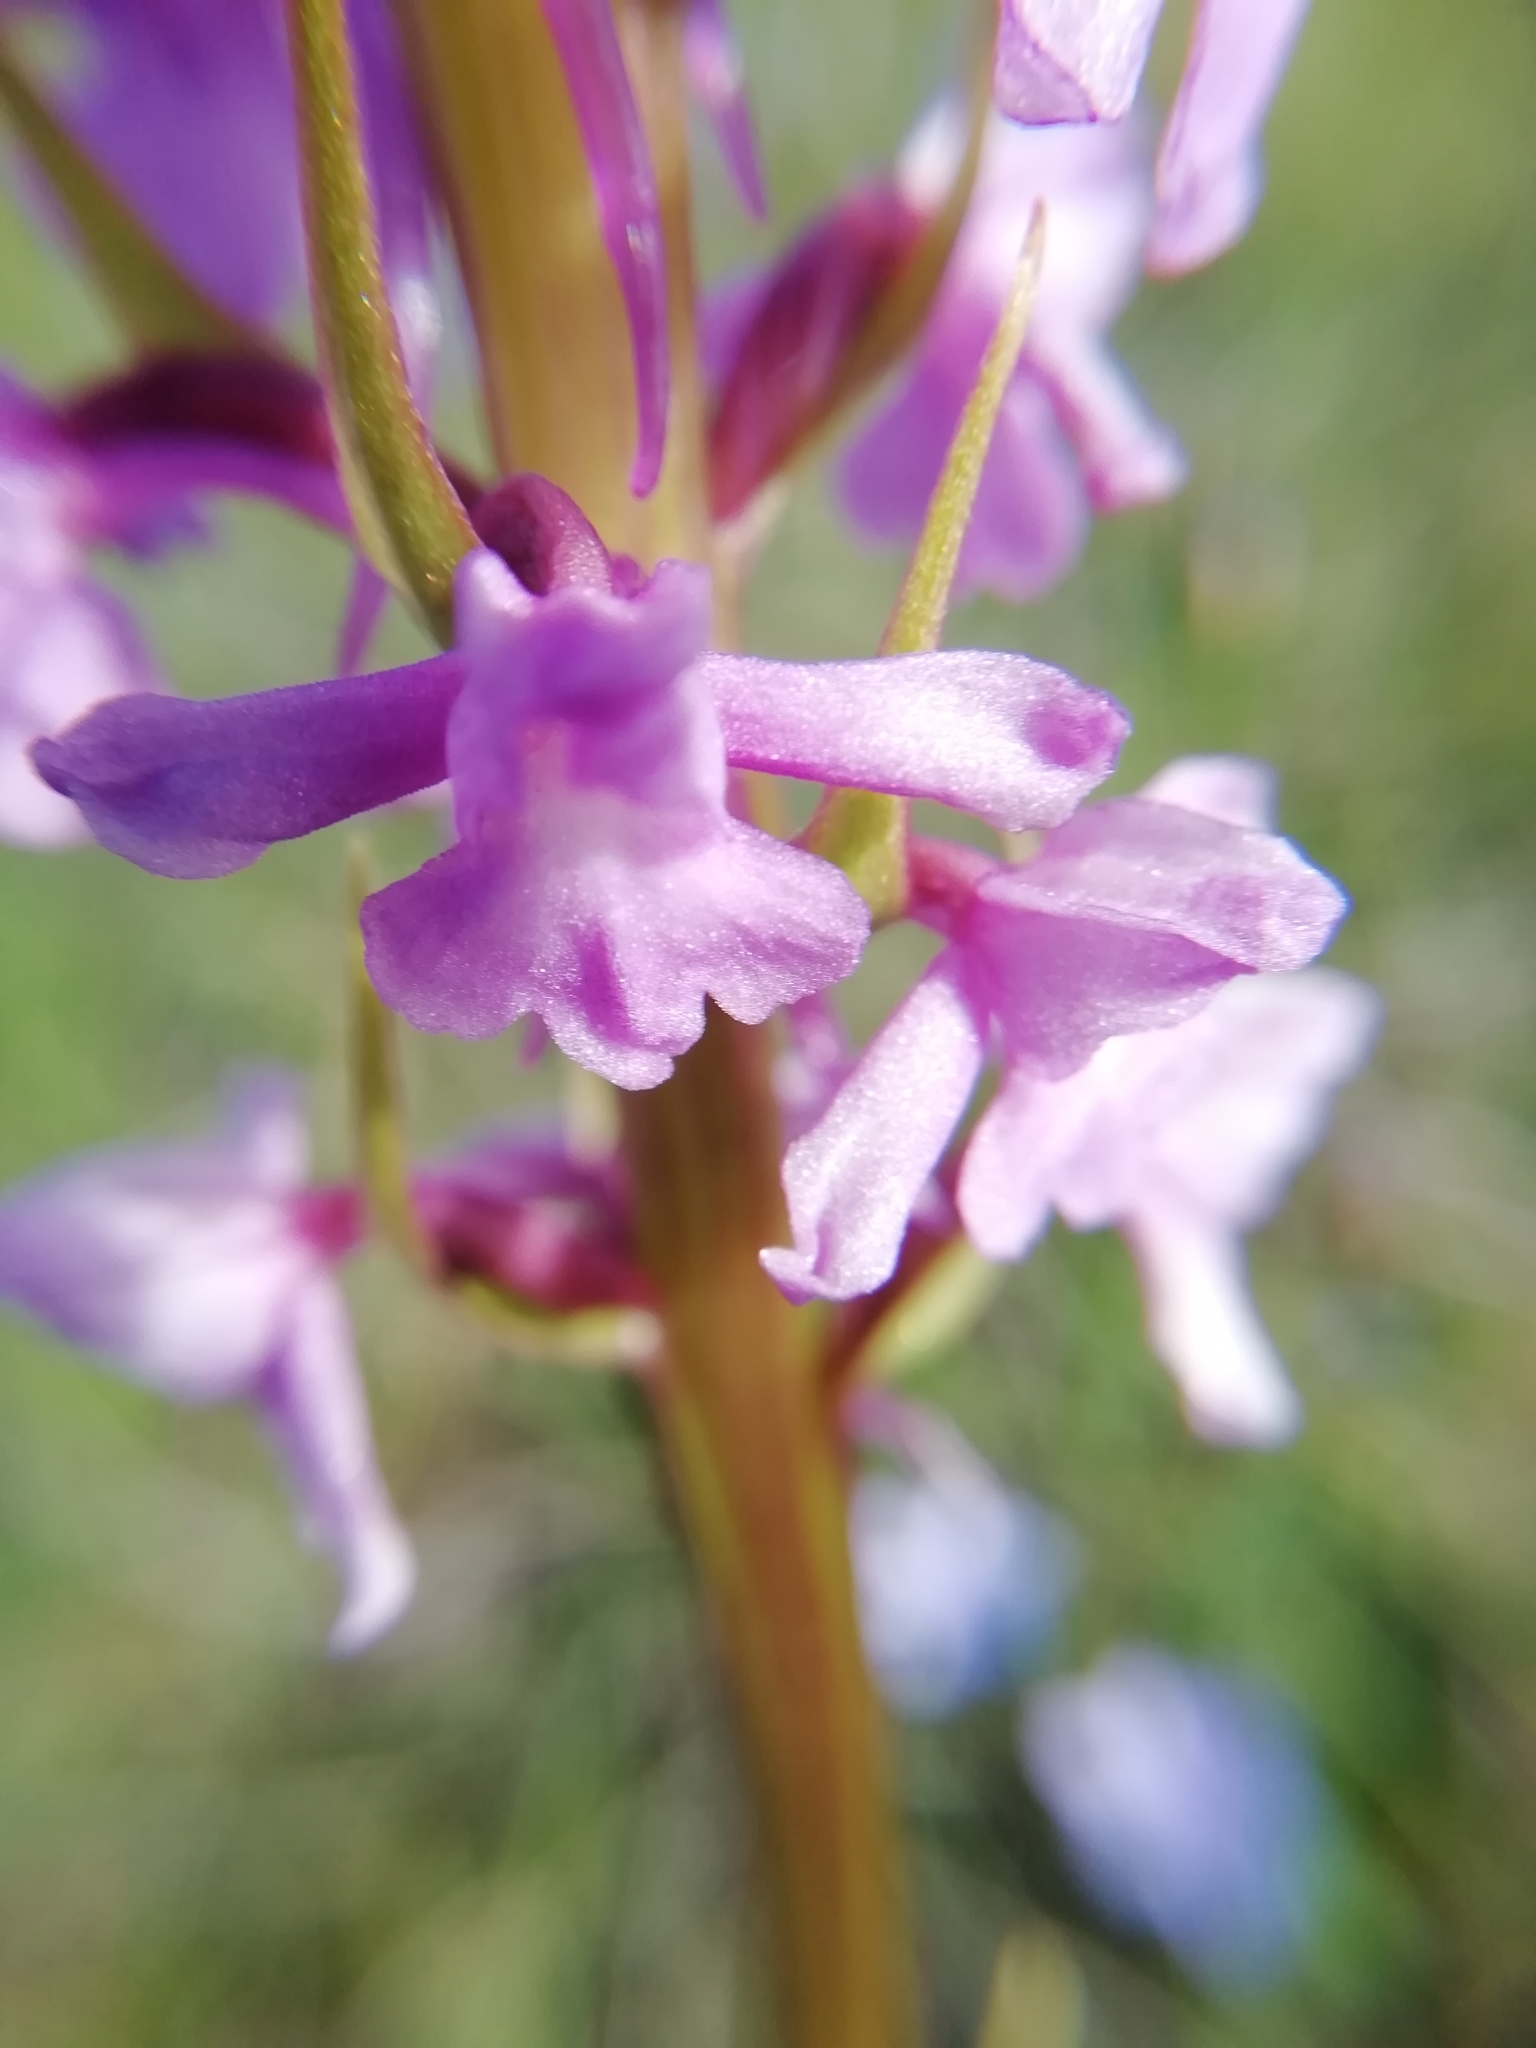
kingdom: Plantae
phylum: Tracheophyta
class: Liliopsida
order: Asparagales
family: Orchidaceae
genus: Gymnadenia
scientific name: Gymnadenia conopsea
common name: Fragrant orchid
